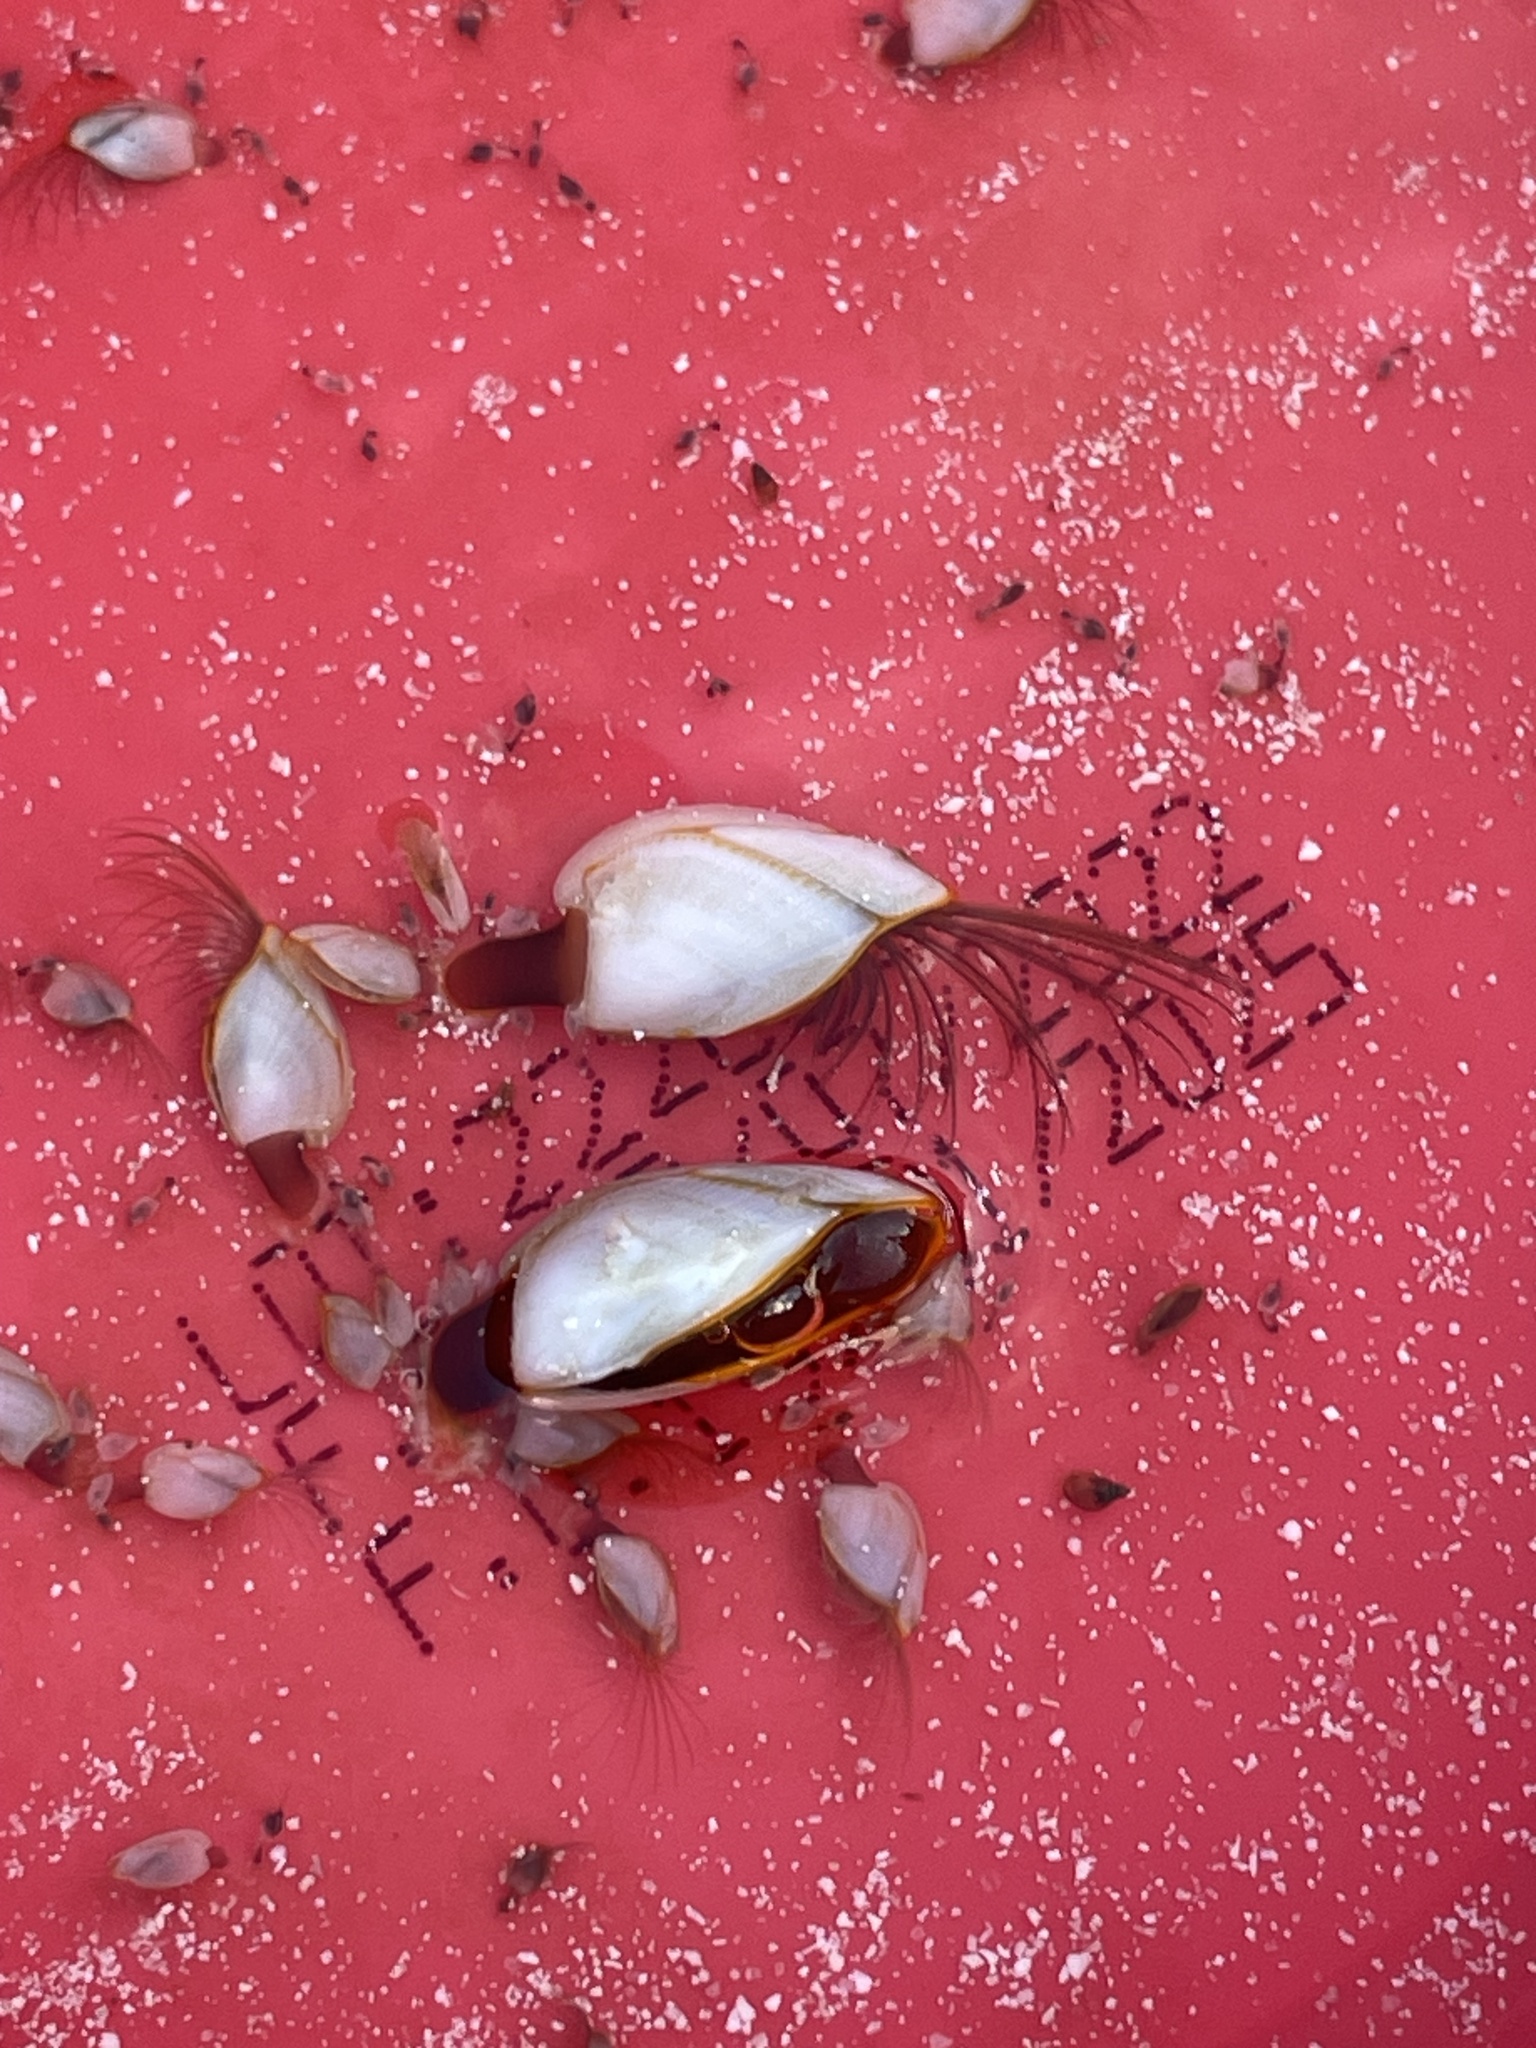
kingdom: Animalia
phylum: Arthropoda
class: Maxillopoda
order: Pedunculata
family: Lepadidae
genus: Lepas
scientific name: Lepas anserifera
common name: Goose barnacle
